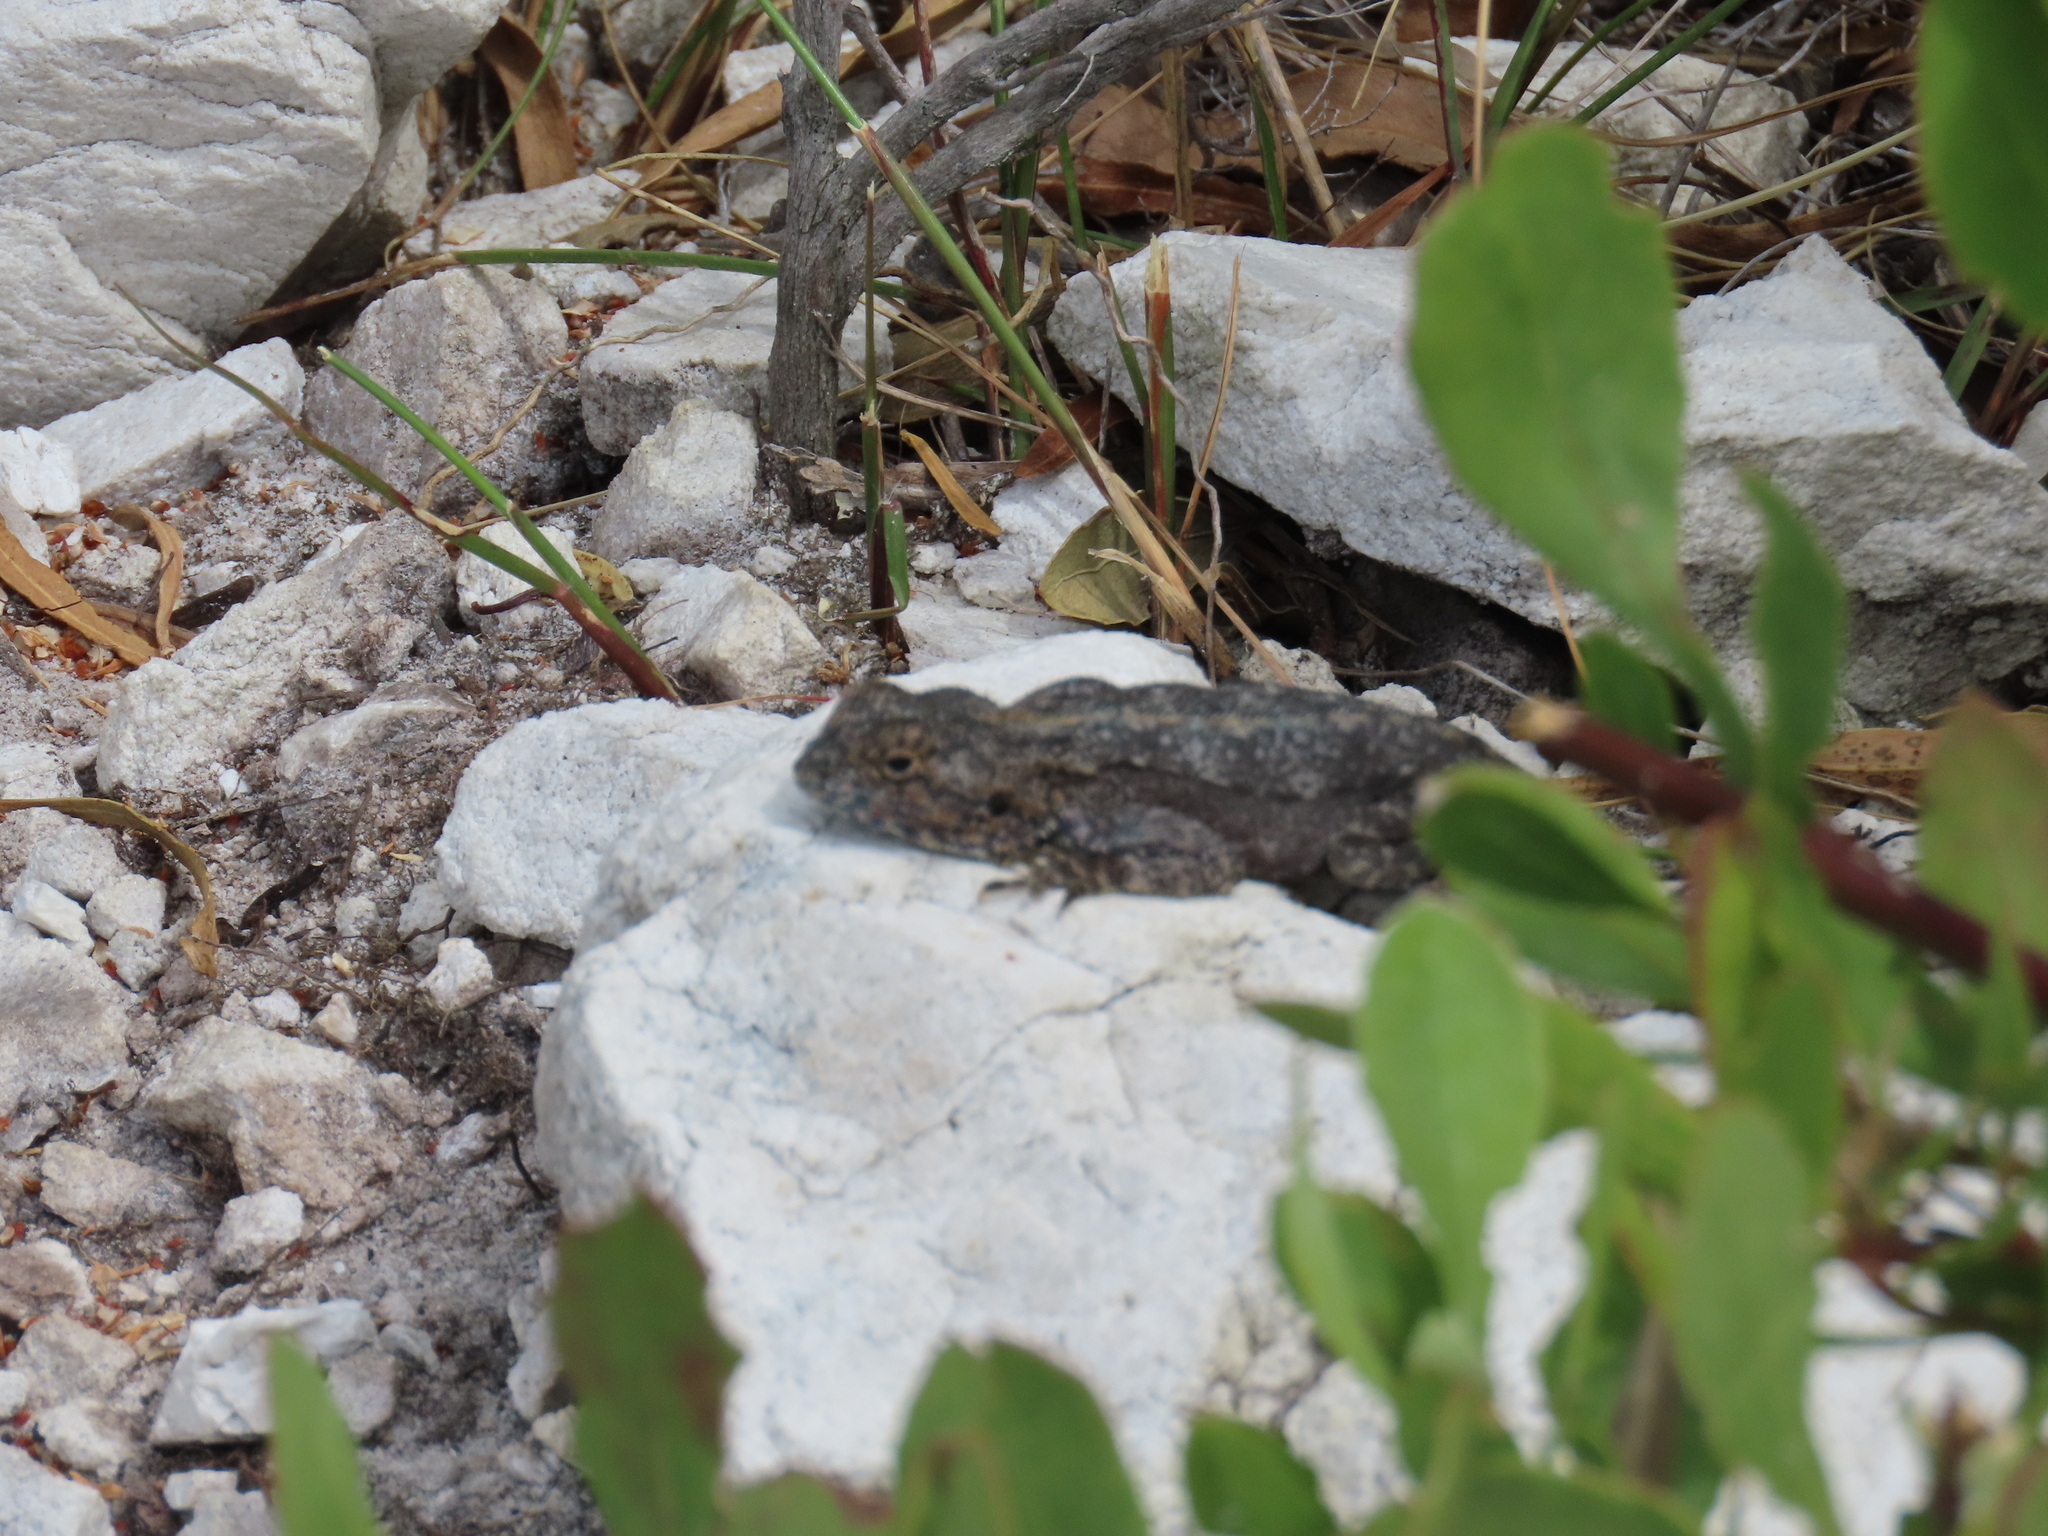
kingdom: Animalia
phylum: Chordata
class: Squamata
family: Agamidae
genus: Agama
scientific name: Agama atra
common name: Southern african rock agama
